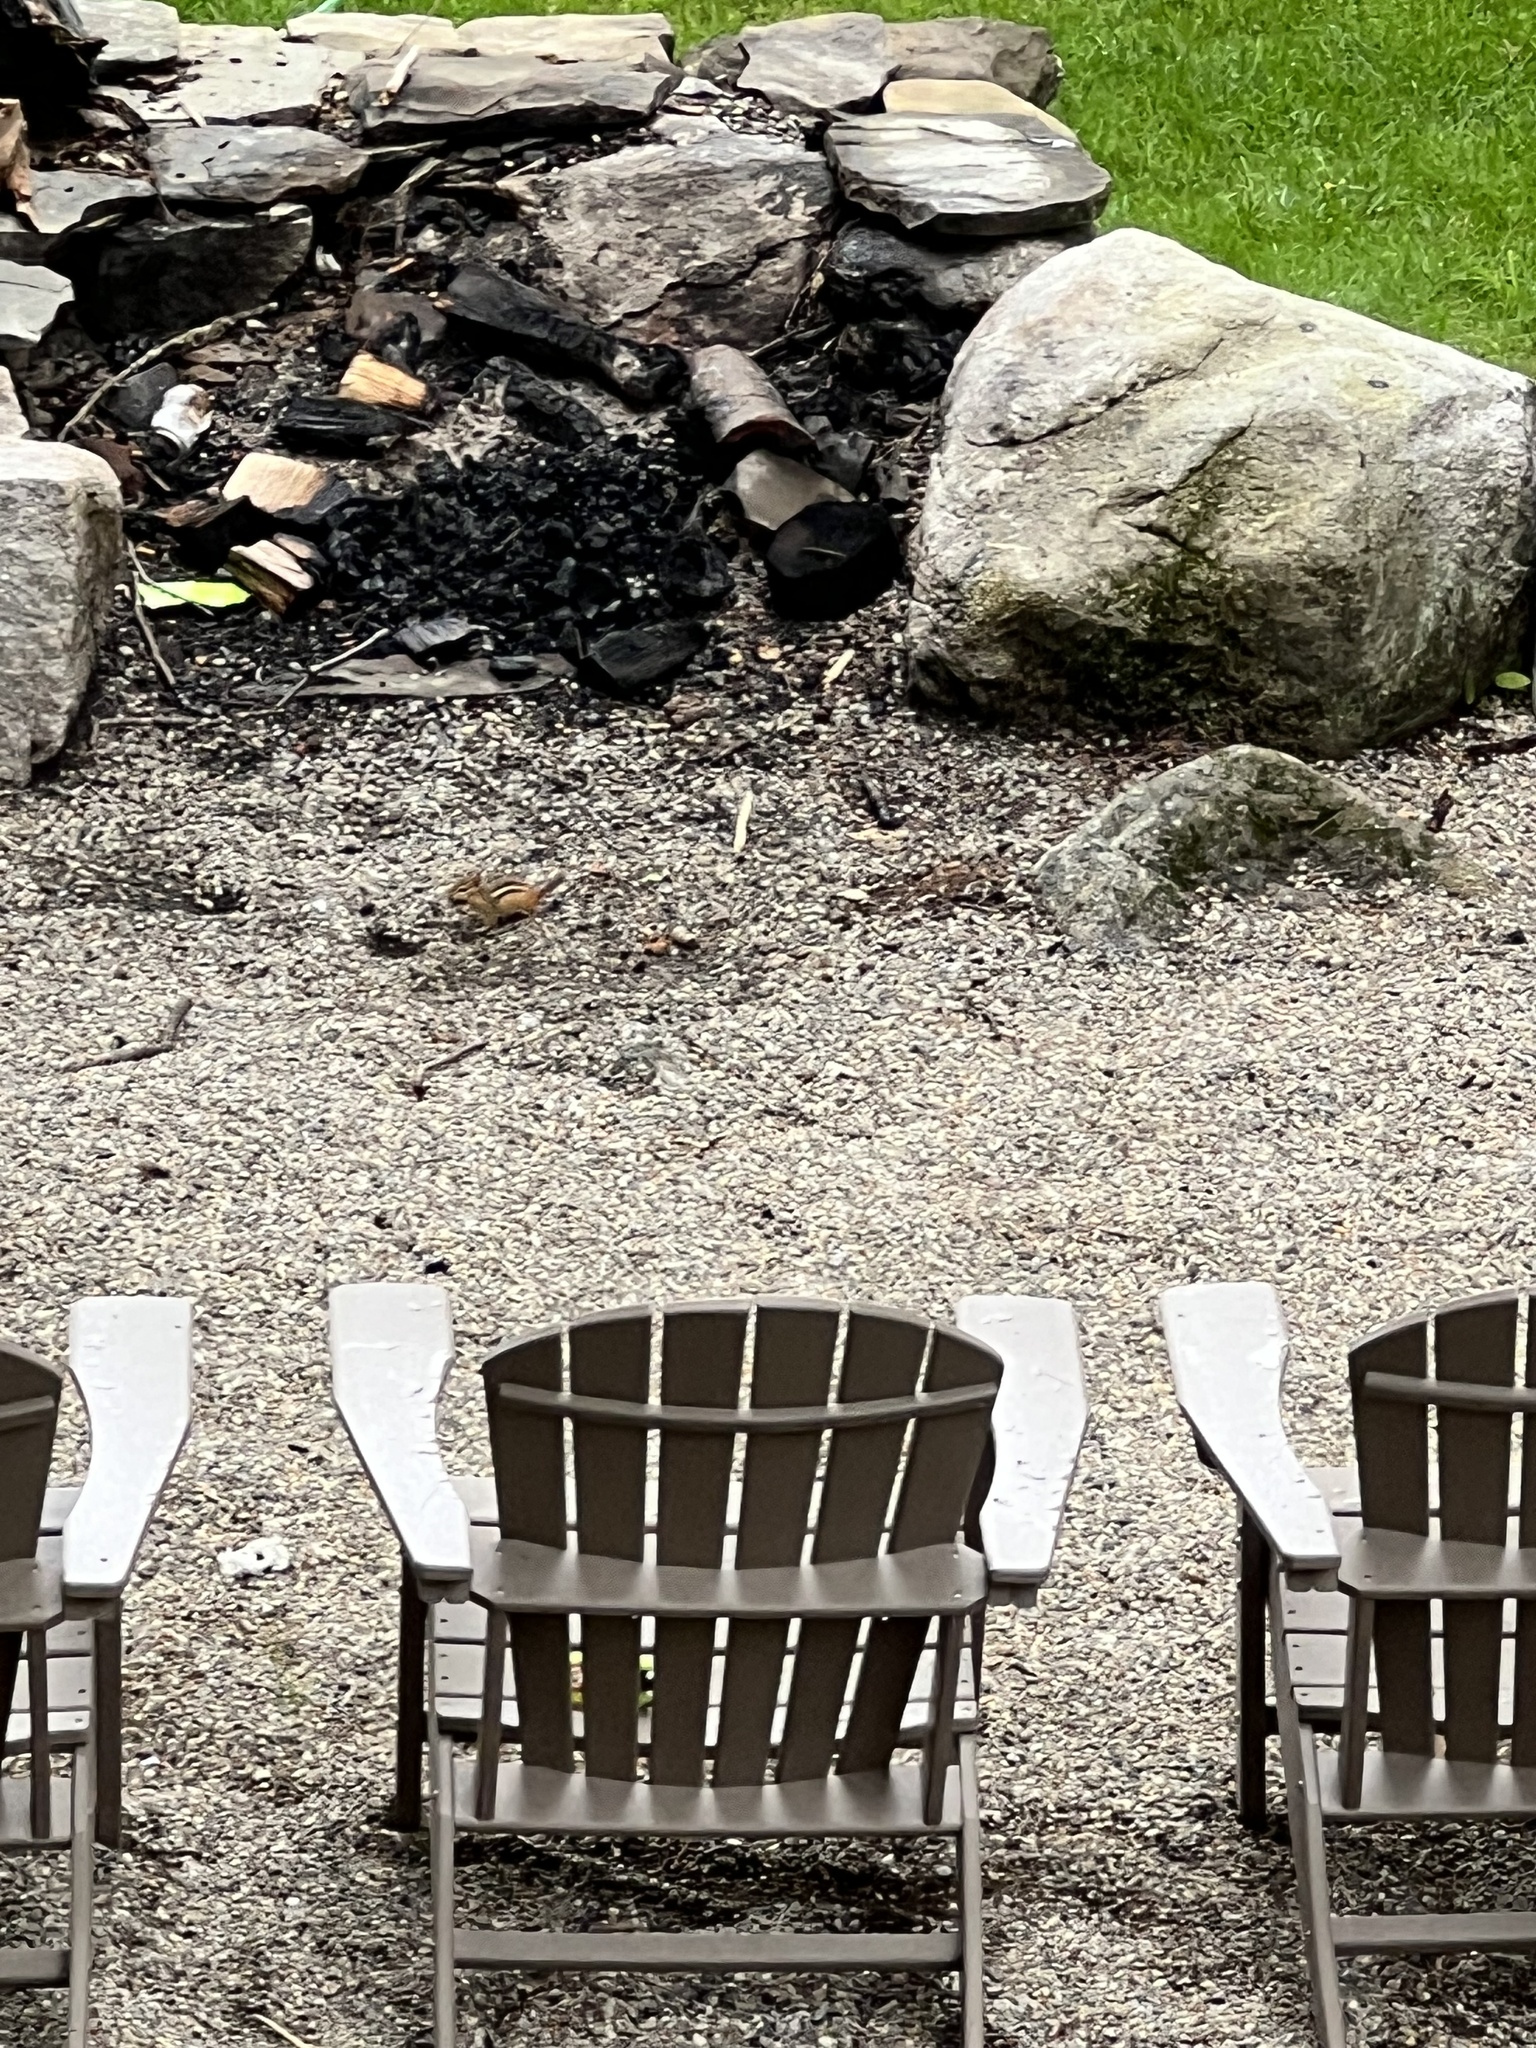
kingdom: Animalia
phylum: Chordata
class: Mammalia
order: Rodentia
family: Sciuridae
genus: Tamias
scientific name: Tamias striatus
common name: Eastern chipmunk
